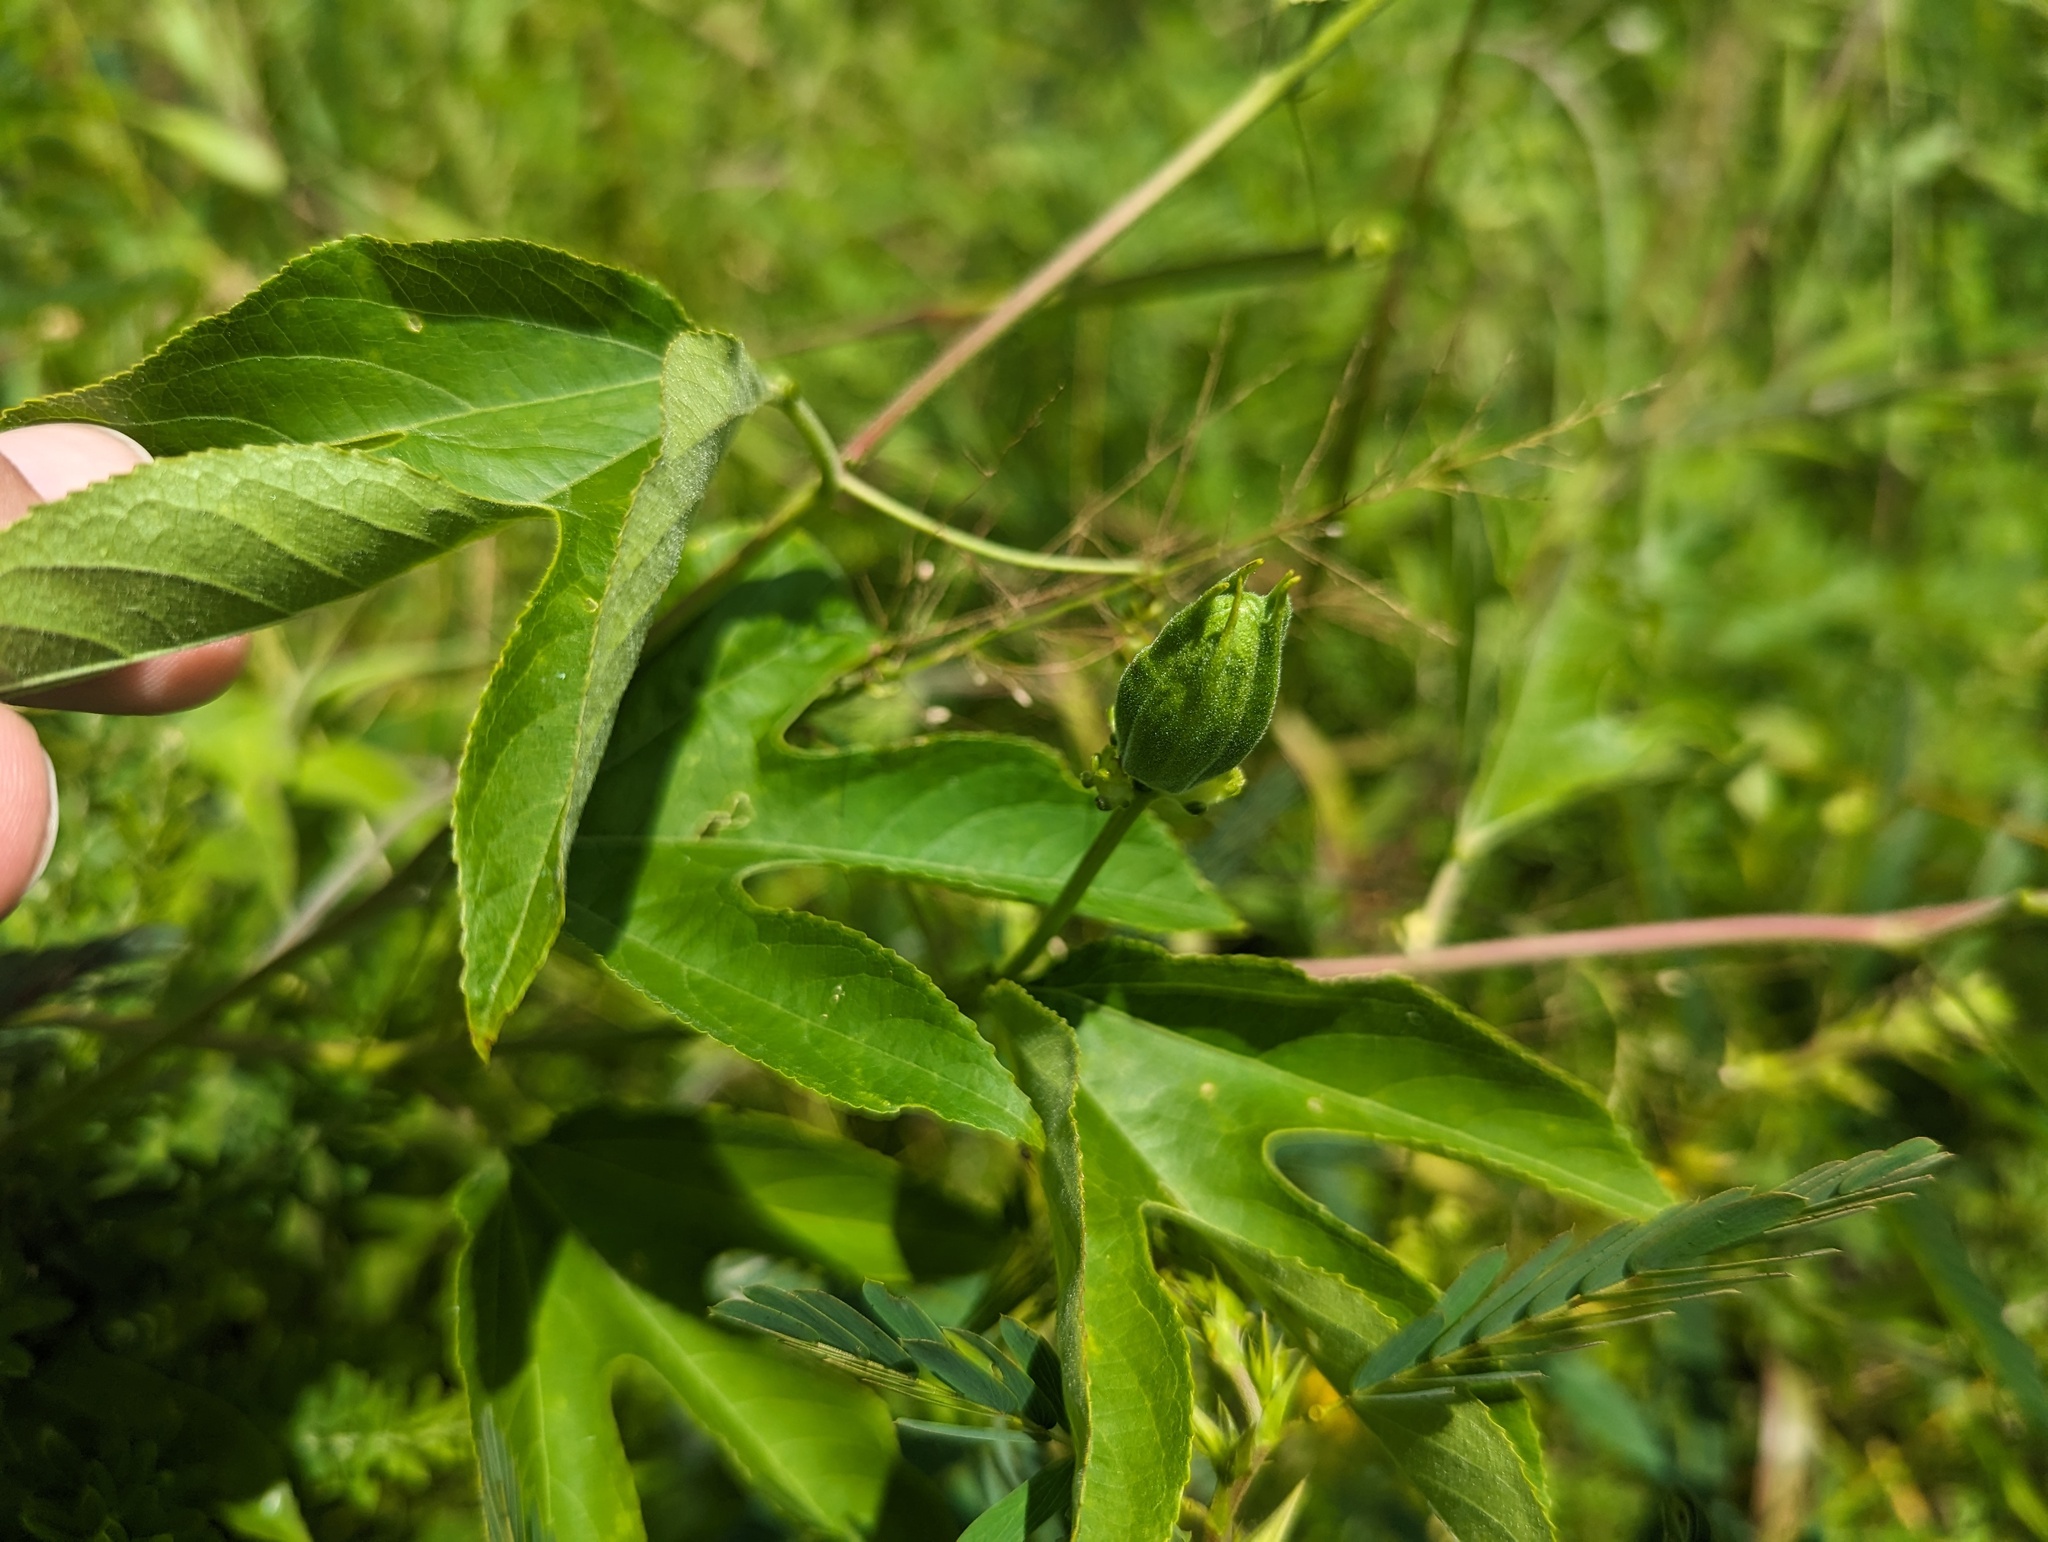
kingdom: Plantae
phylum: Tracheophyta
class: Magnoliopsida
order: Malpighiales
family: Passifloraceae
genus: Passiflora
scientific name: Passiflora incarnata
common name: Apricot-vine
